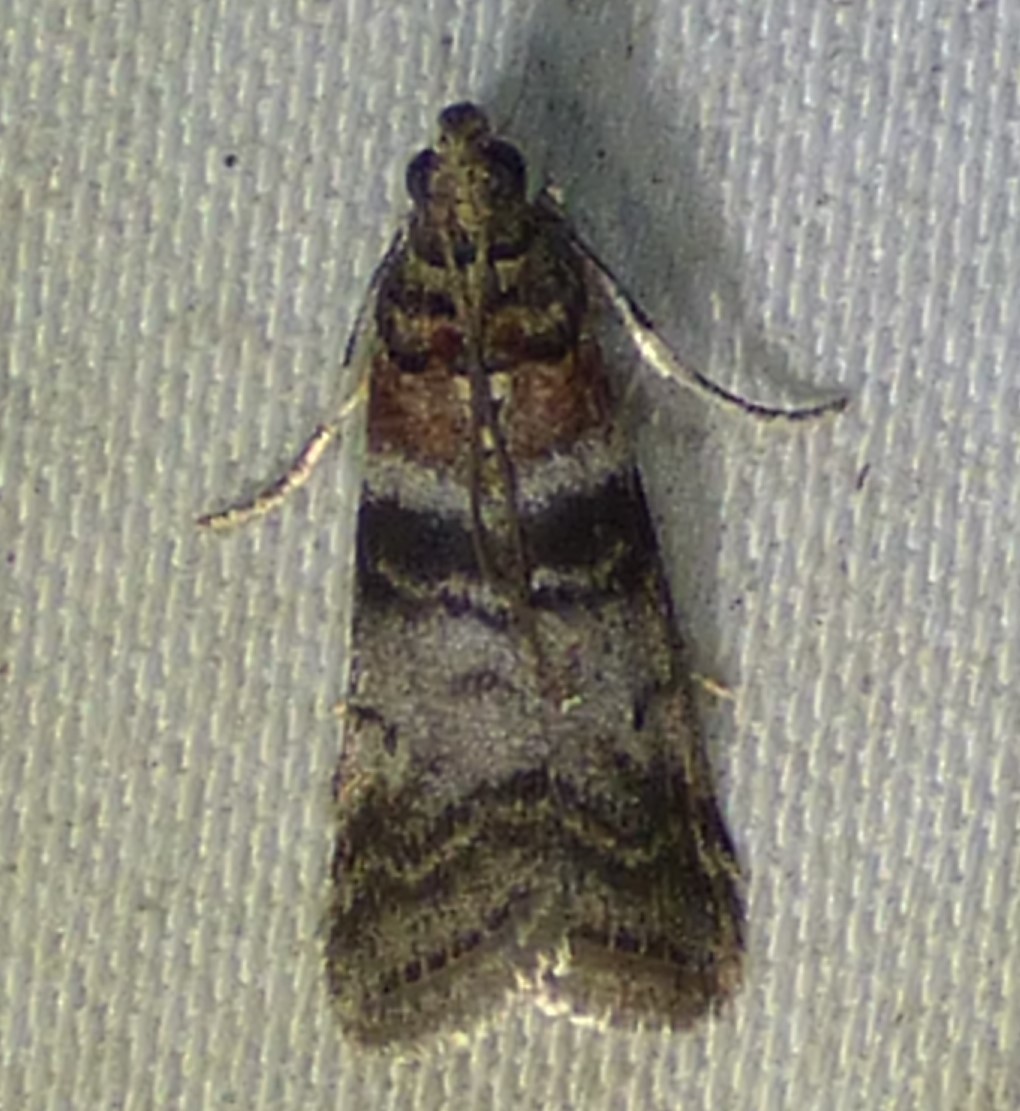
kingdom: Animalia
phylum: Arthropoda
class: Insecta
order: Lepidoptera
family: Pyralidae
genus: Sciota
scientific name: Sciota uvinella
